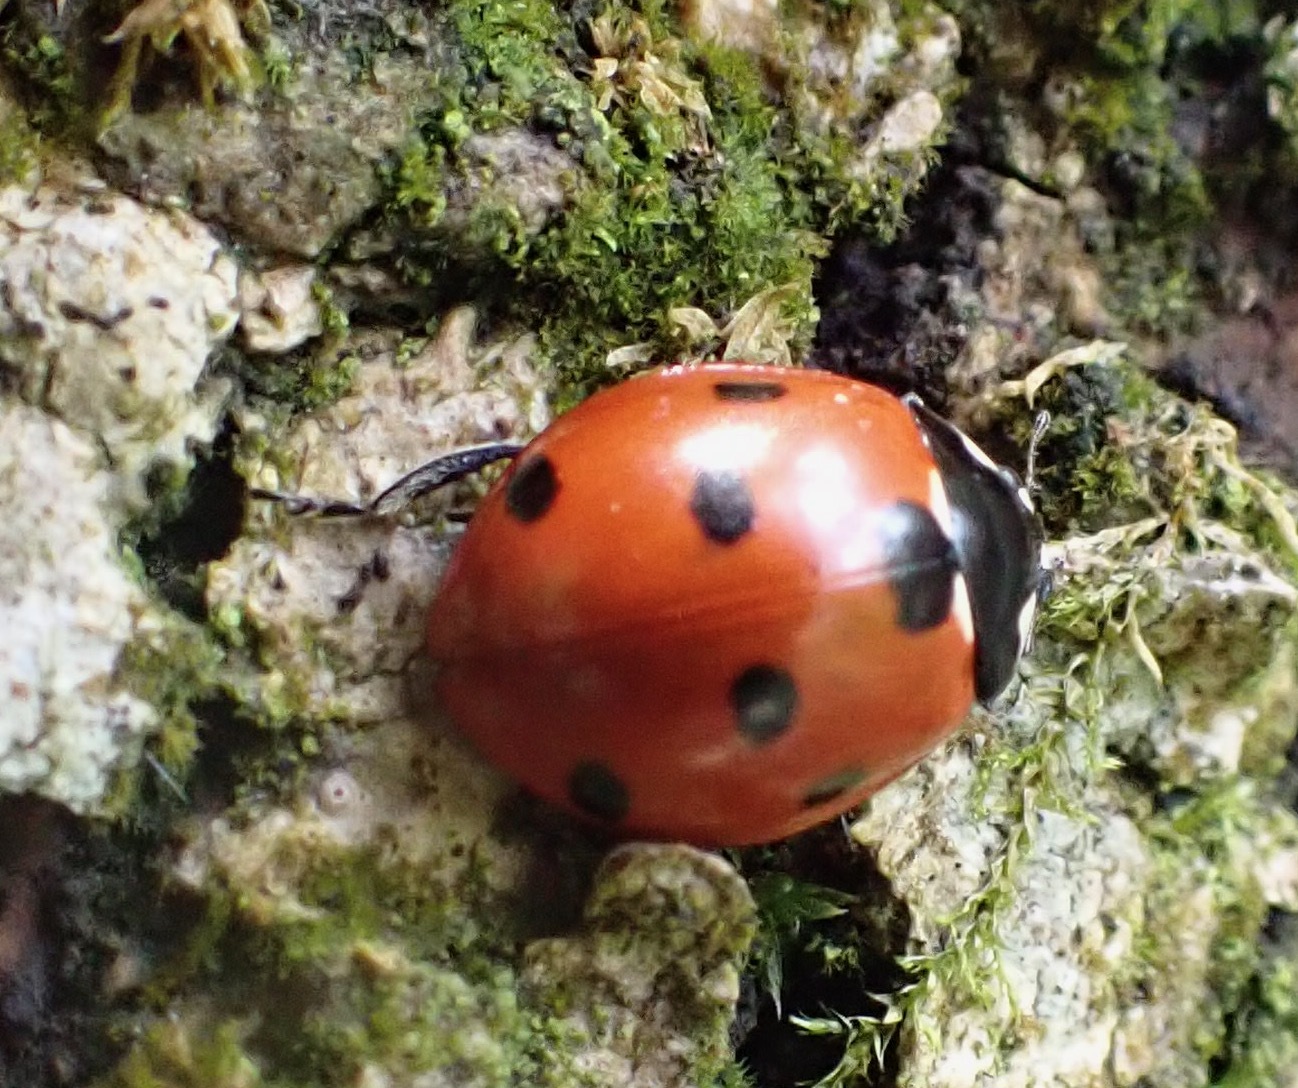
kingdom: Animalia
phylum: Arthropoda
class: Insecta
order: Coleoptera
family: Coccinellidae
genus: Coccinella
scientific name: Coccinella septempunctata
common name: Sevenspotted lady beetle
